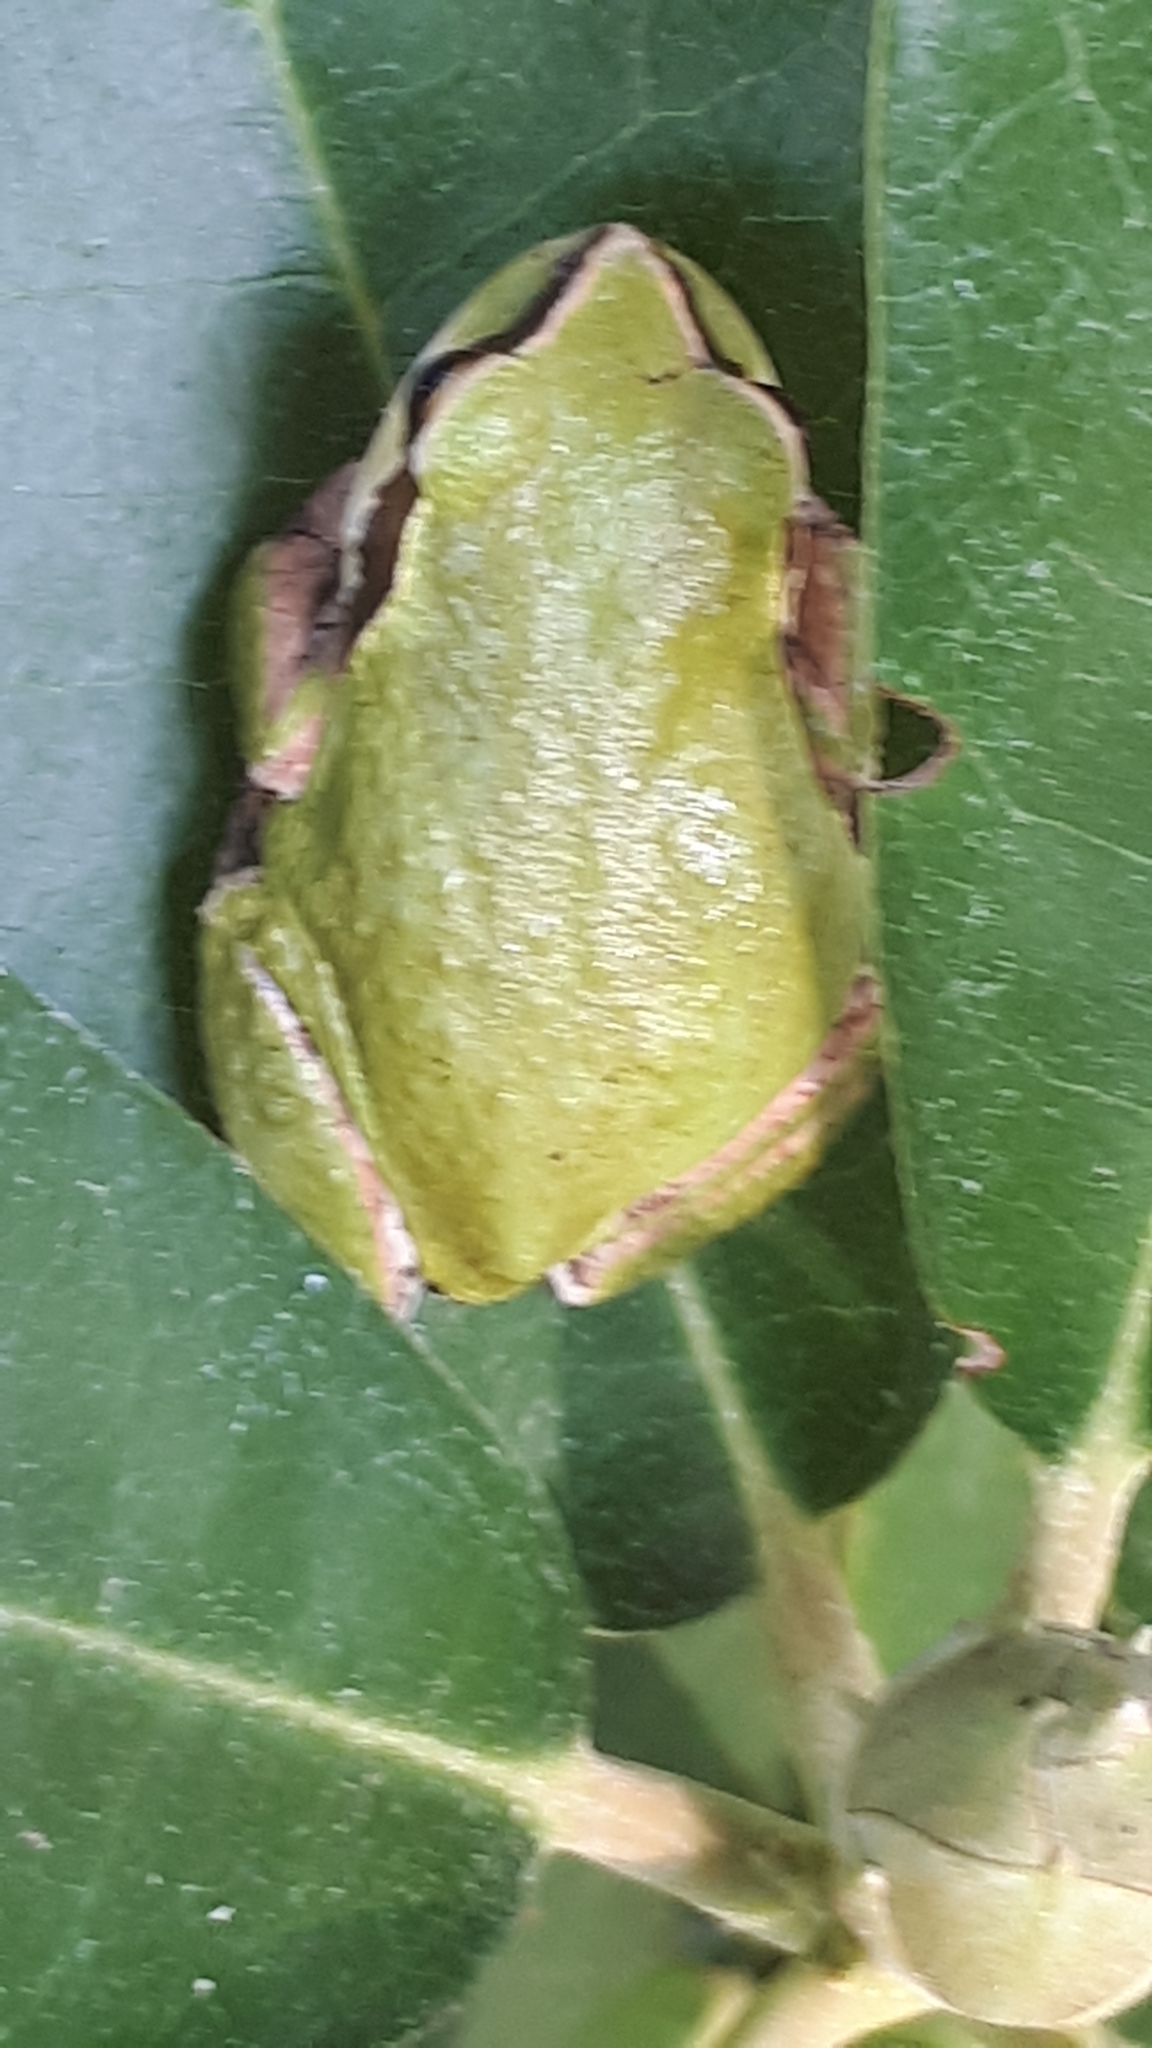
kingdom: Animalia
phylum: Chordata
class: Amphibia
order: Anura
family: Hylidae
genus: Pseudacris
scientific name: Pseudacris regilla
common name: Pacific chorus frog
